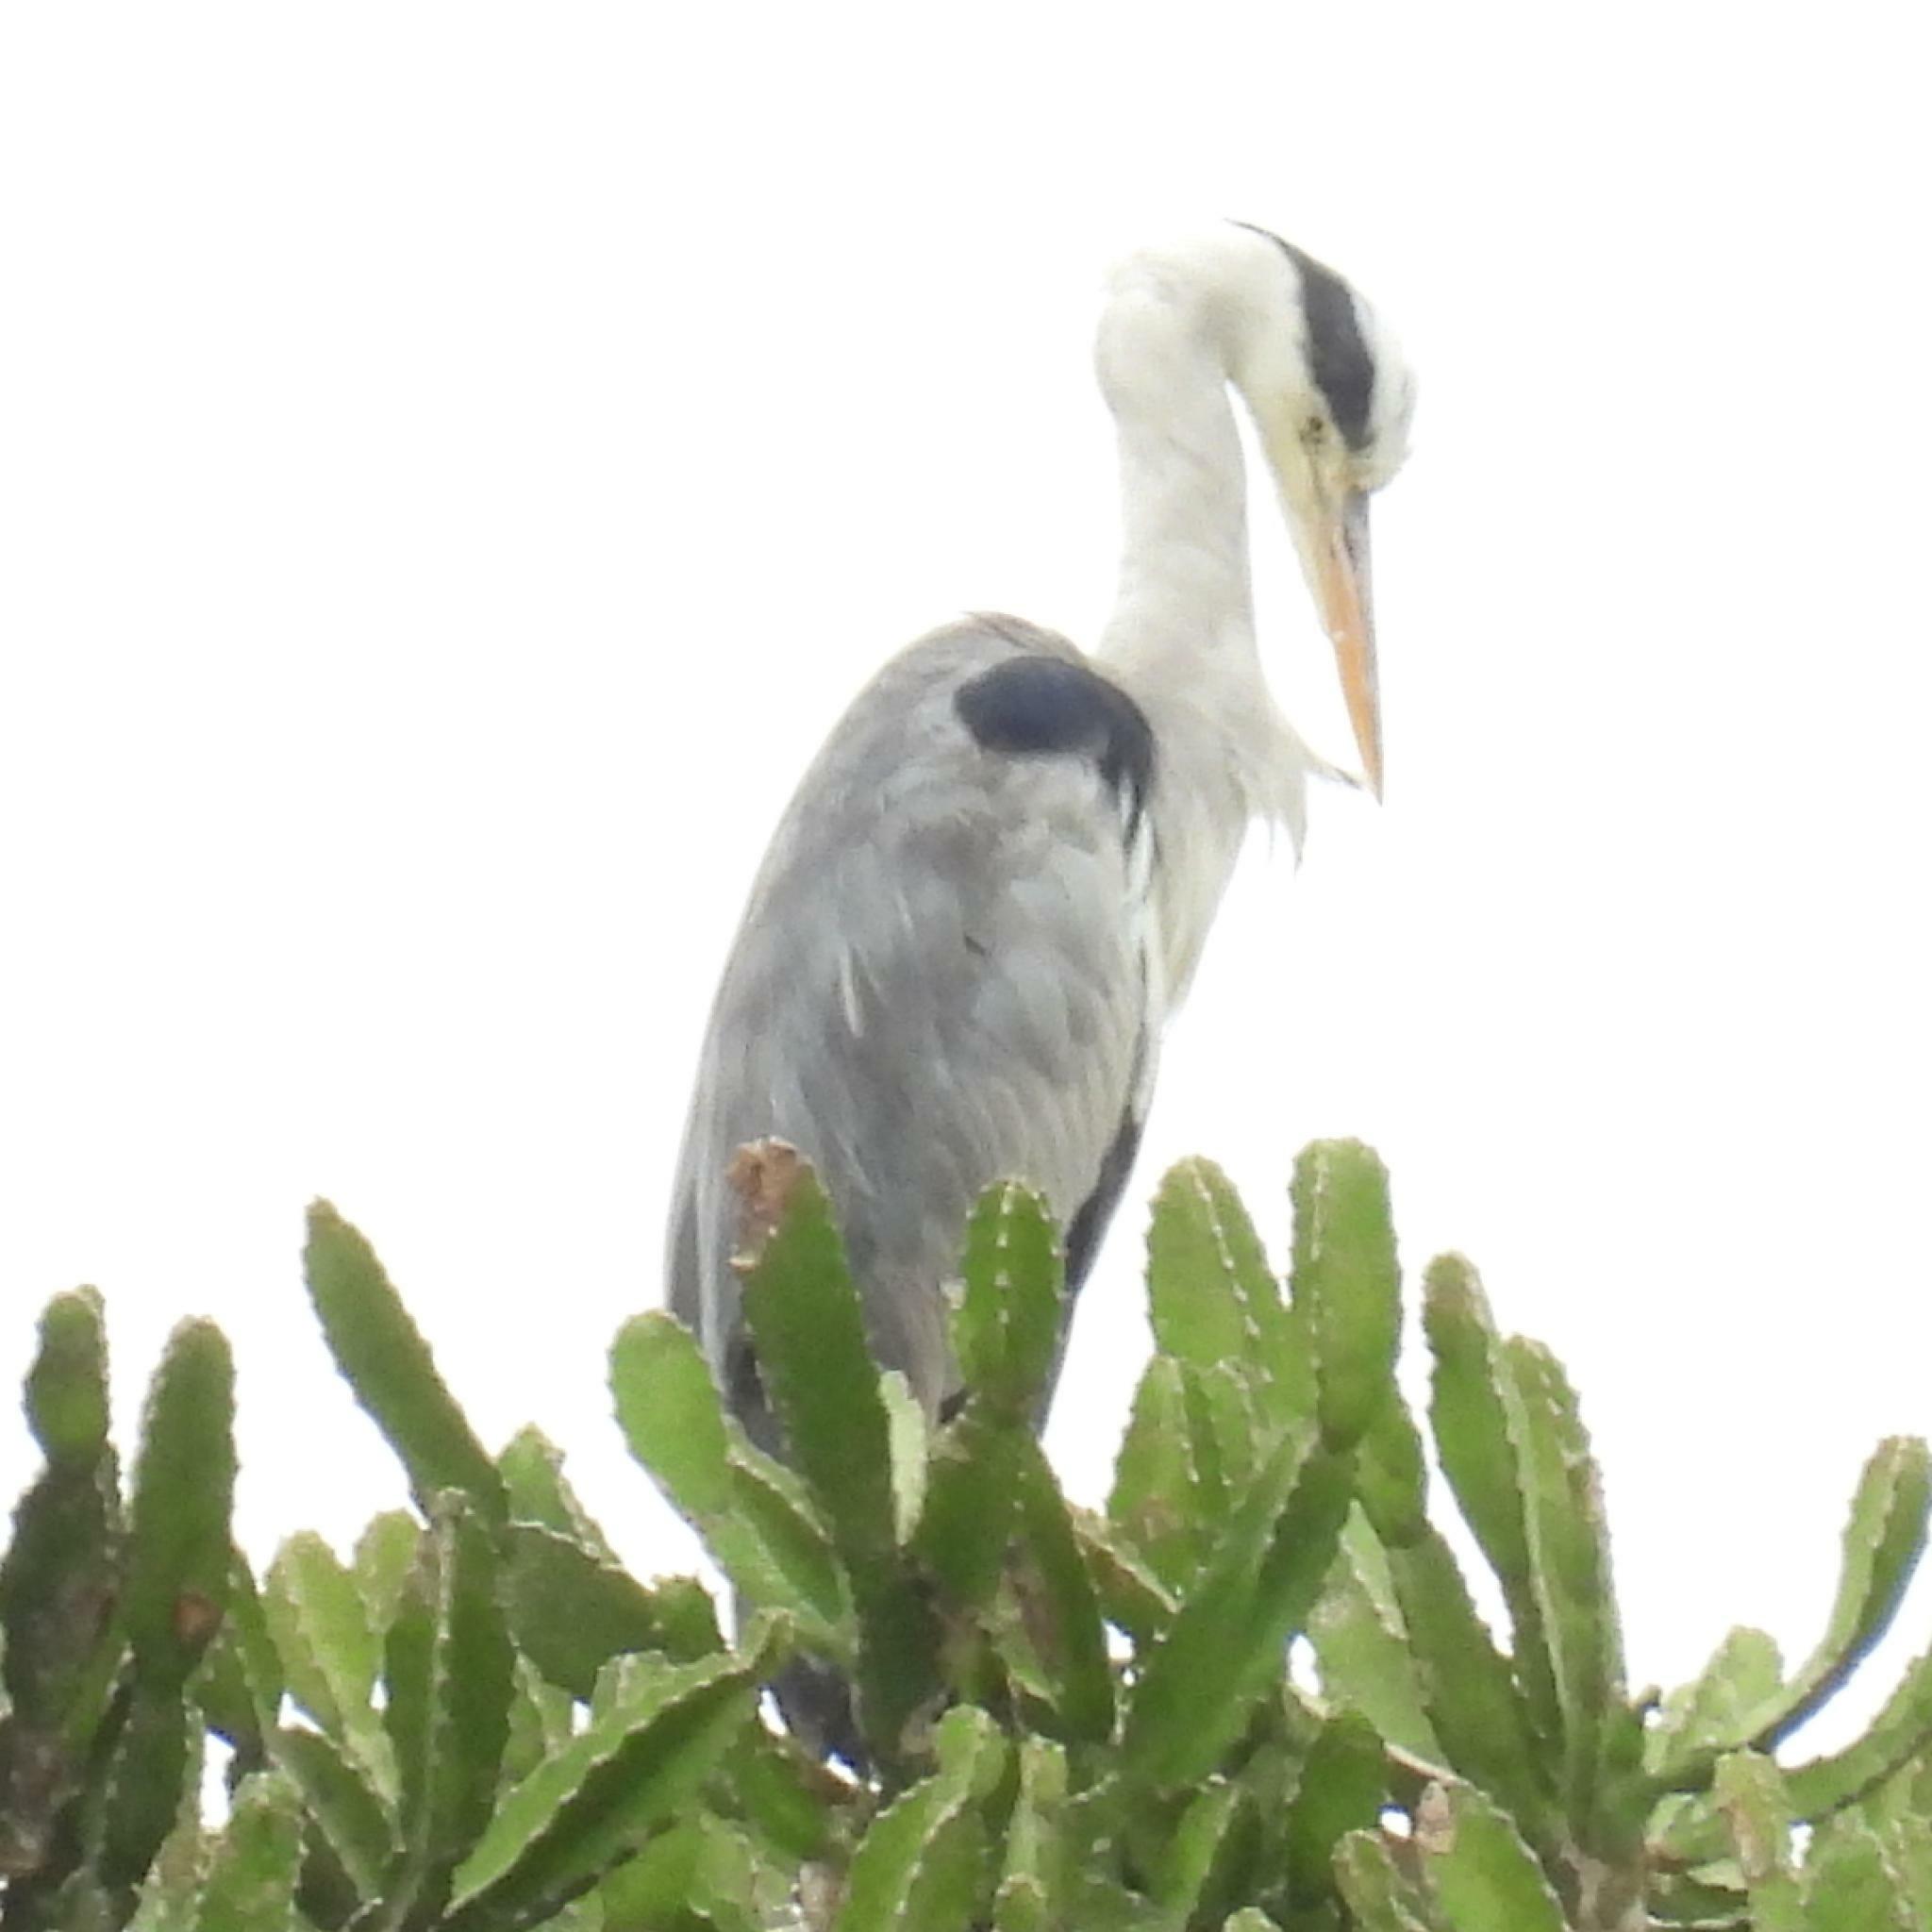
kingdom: Animalia
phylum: Chordata
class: Aves
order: Pelecaniformes
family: Ardeidae
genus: Ardea
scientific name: Ardea cinerea
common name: Grey heron
